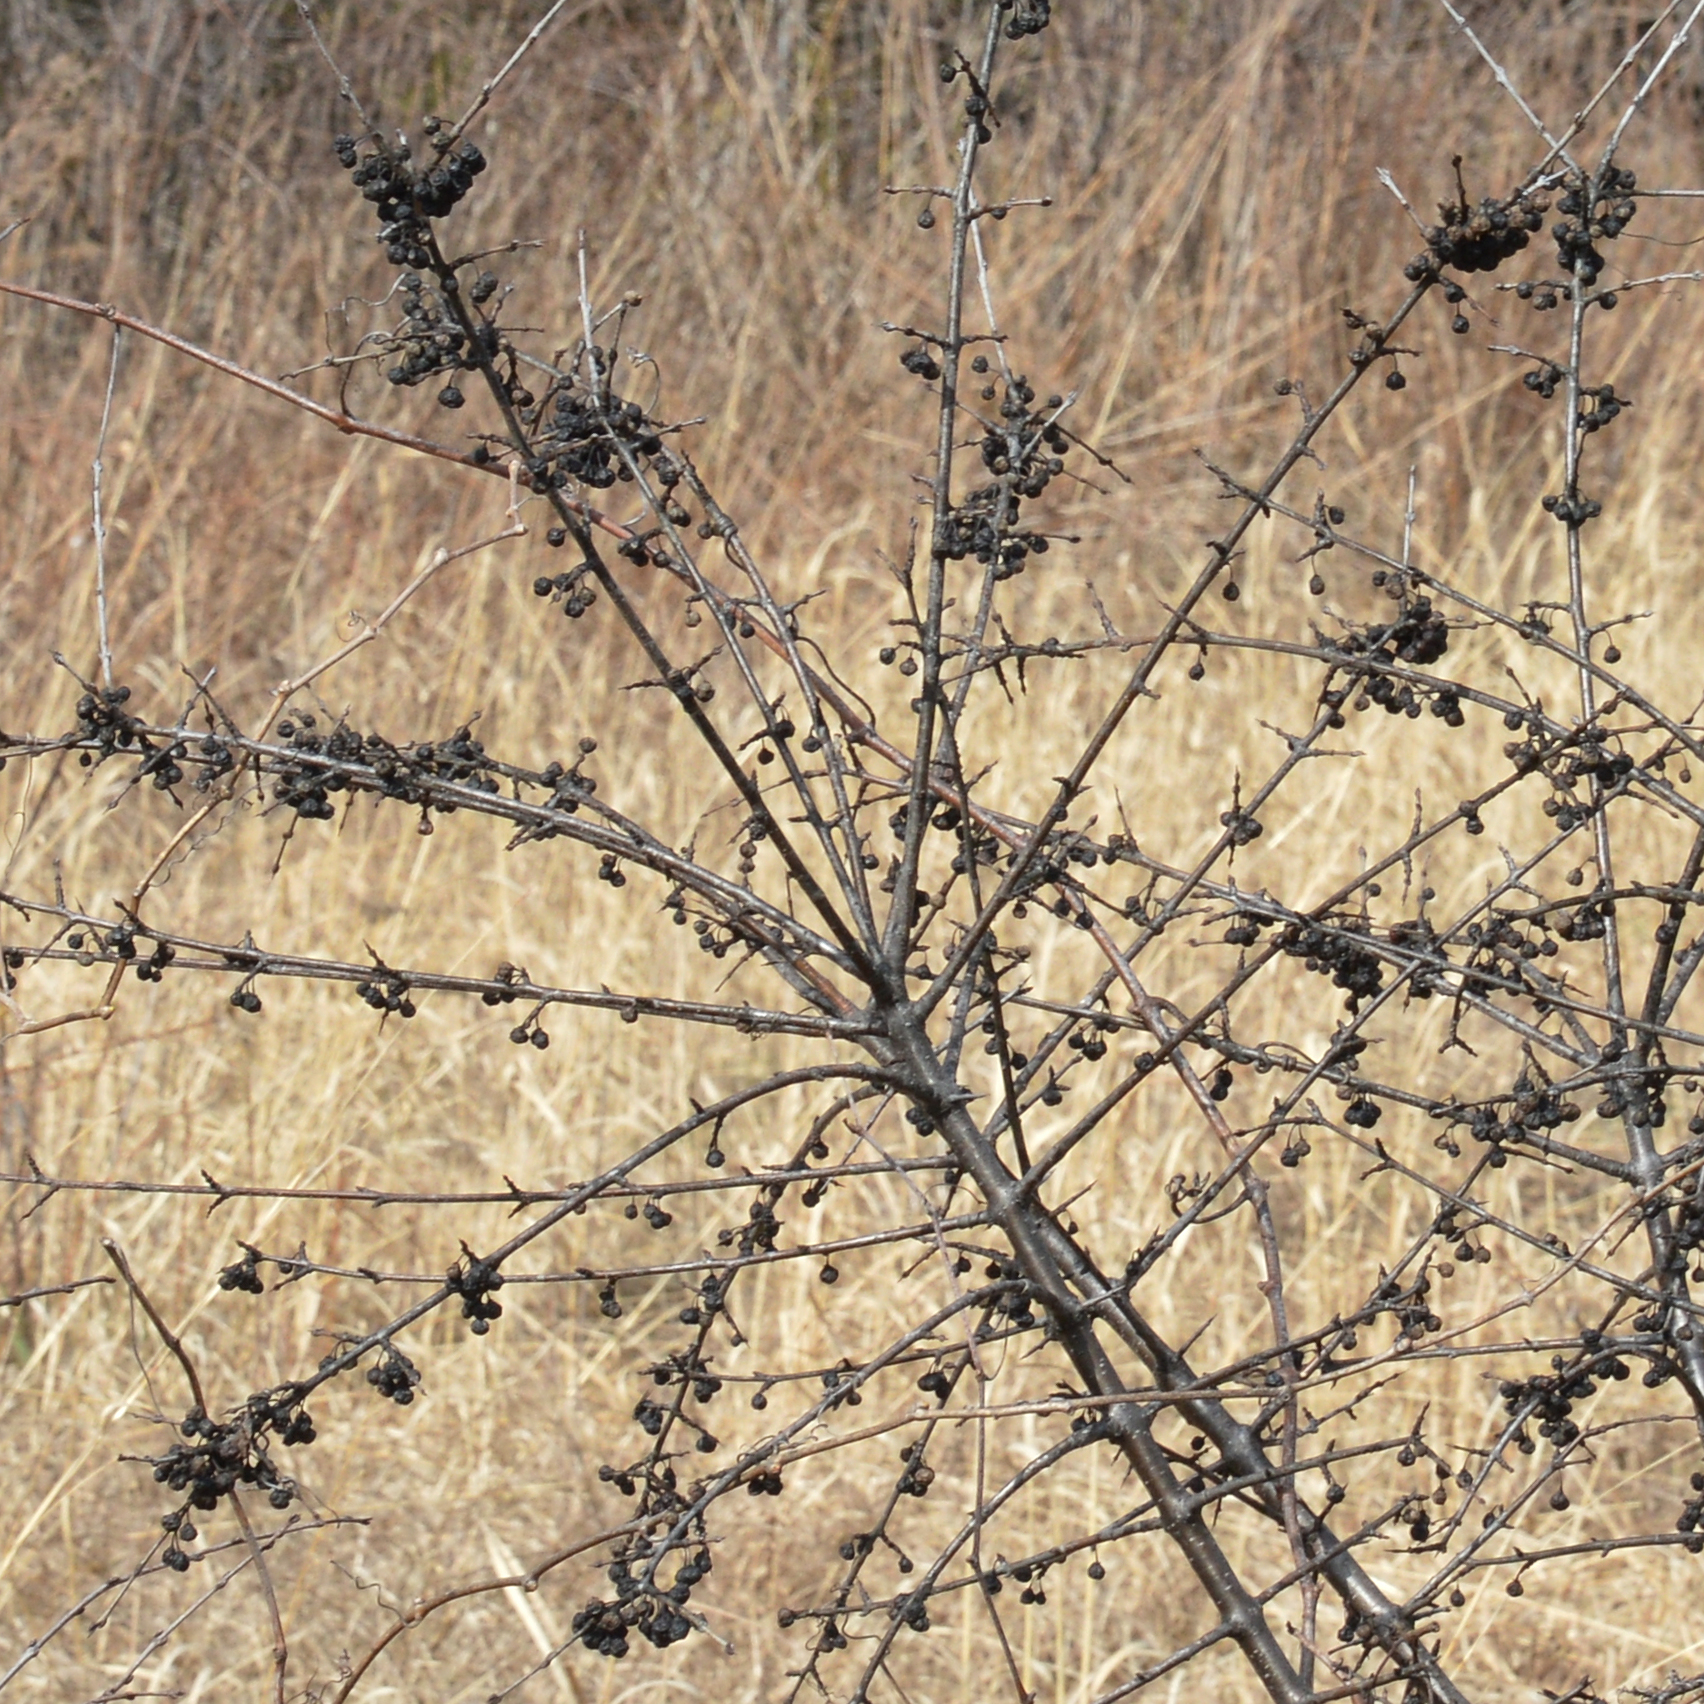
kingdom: Plantae
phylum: Tracheophyta
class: Magnoliopsida
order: Rosales
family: Rhamnaceae
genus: Rhamnus
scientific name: Rhamnus cathartica
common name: Common buckthorn
